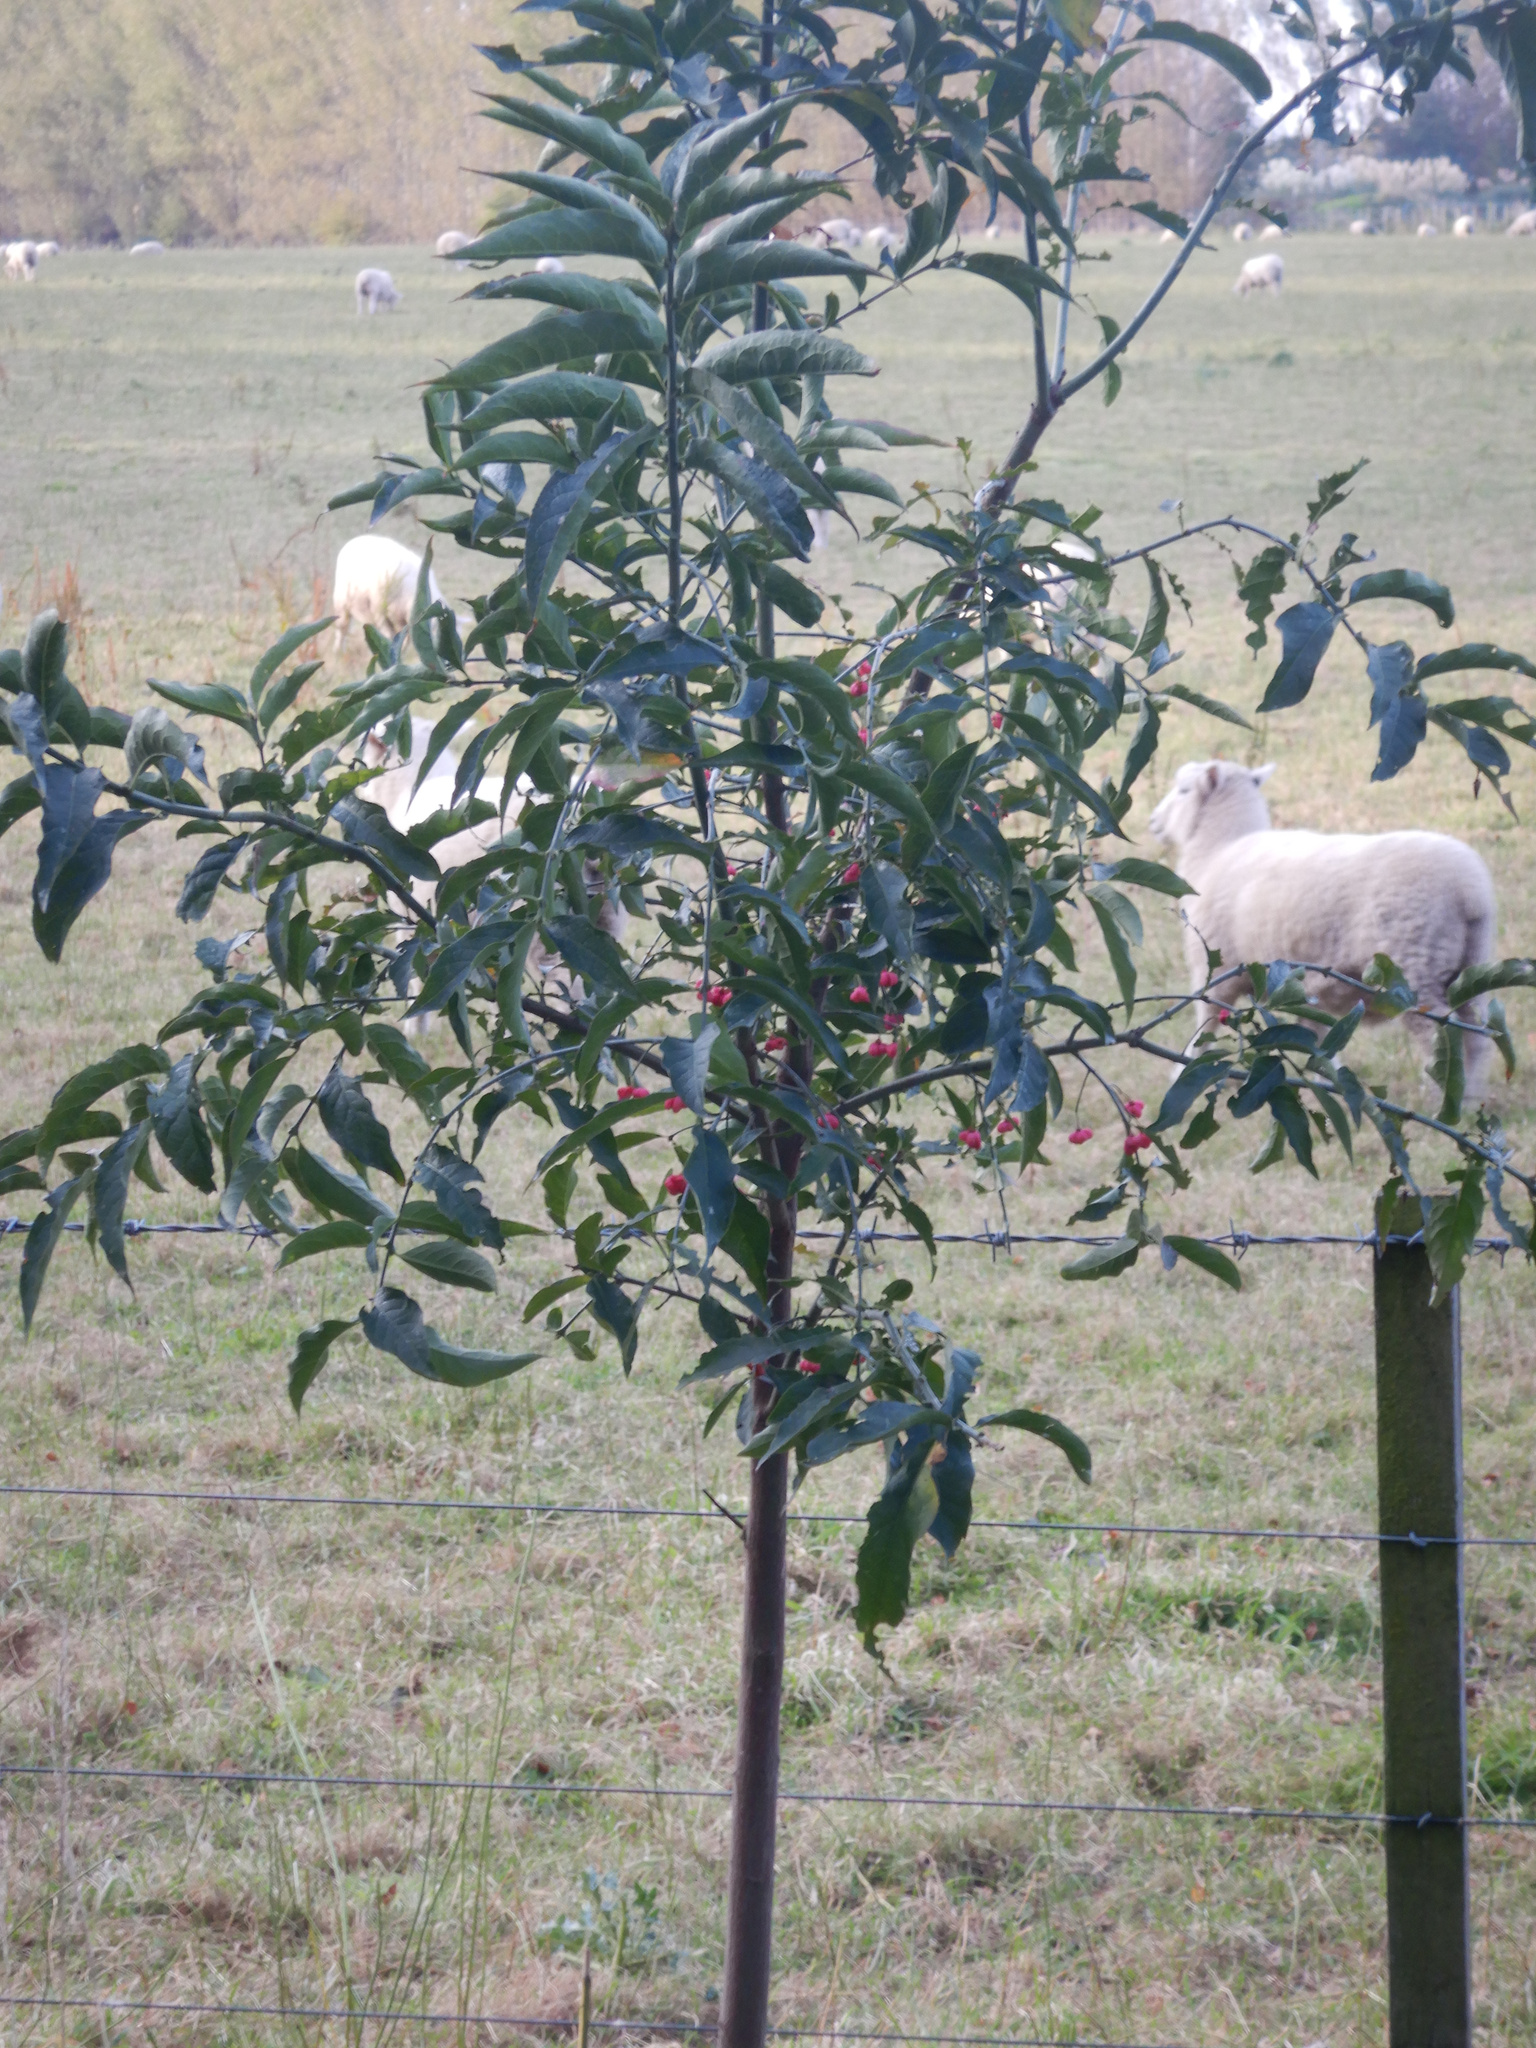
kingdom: Plantae
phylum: Tracheophyta
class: Magnoliopsida
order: Celastrales
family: Celastraceae
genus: Euonymus
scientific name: Euonymus europaeus
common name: Spindle
